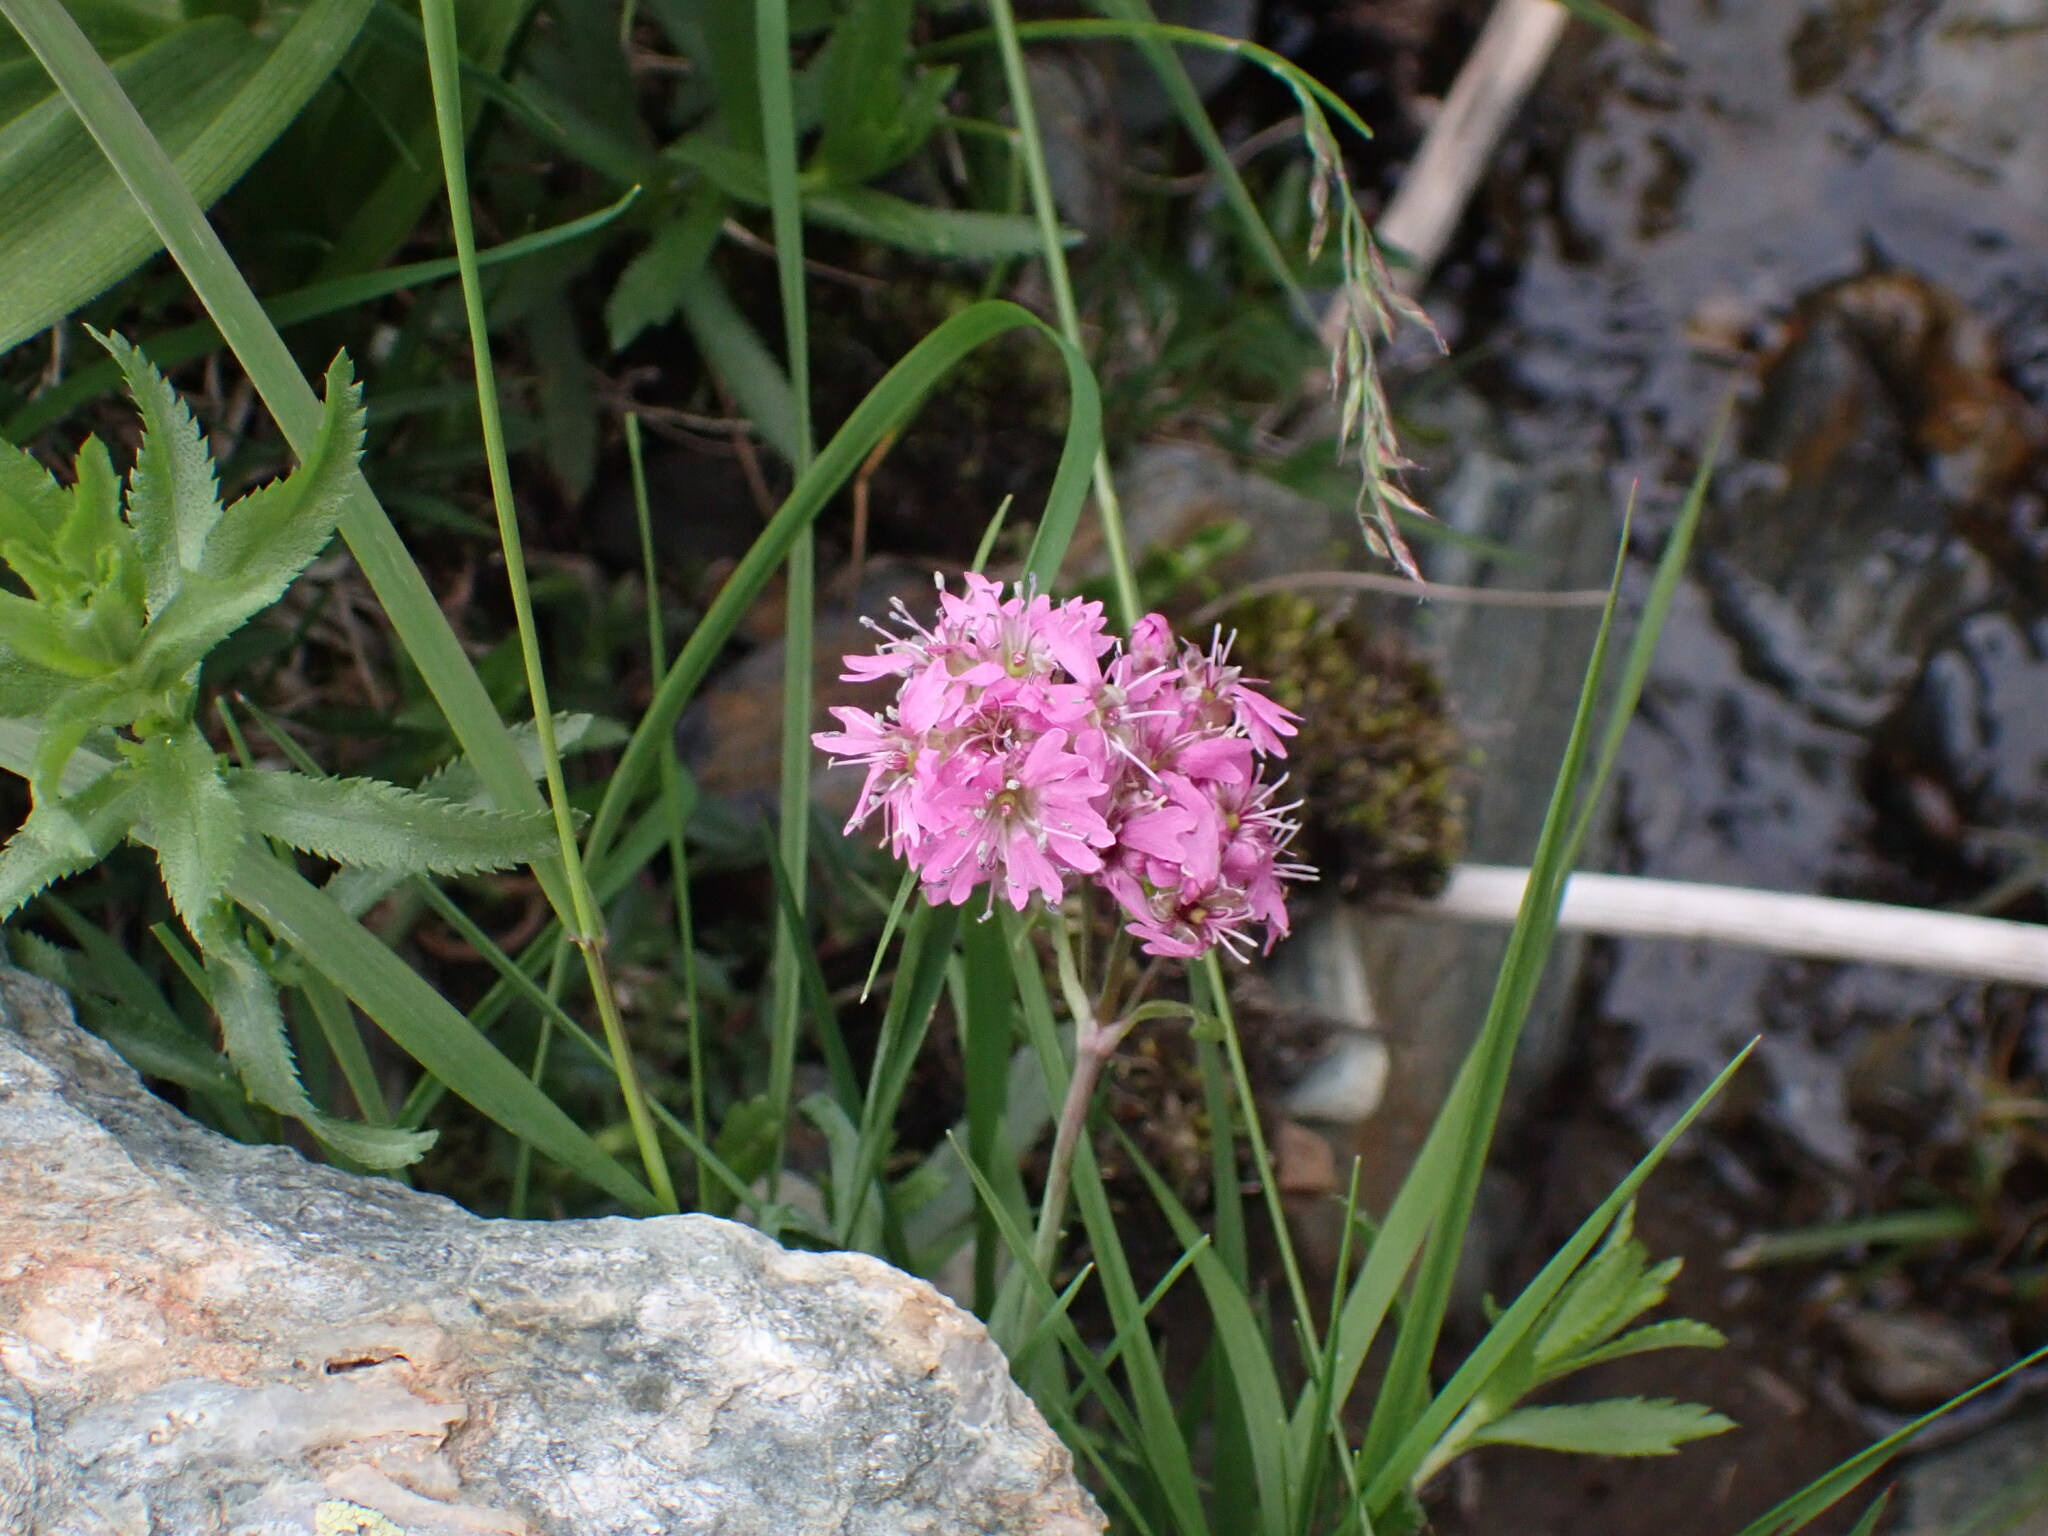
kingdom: Plantae
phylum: Tracheophyta
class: Magnoliopsida
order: Caryophyllales
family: Caryophyllaceae
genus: Viscaria
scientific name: Viscaria alpina
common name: Alpine campion
